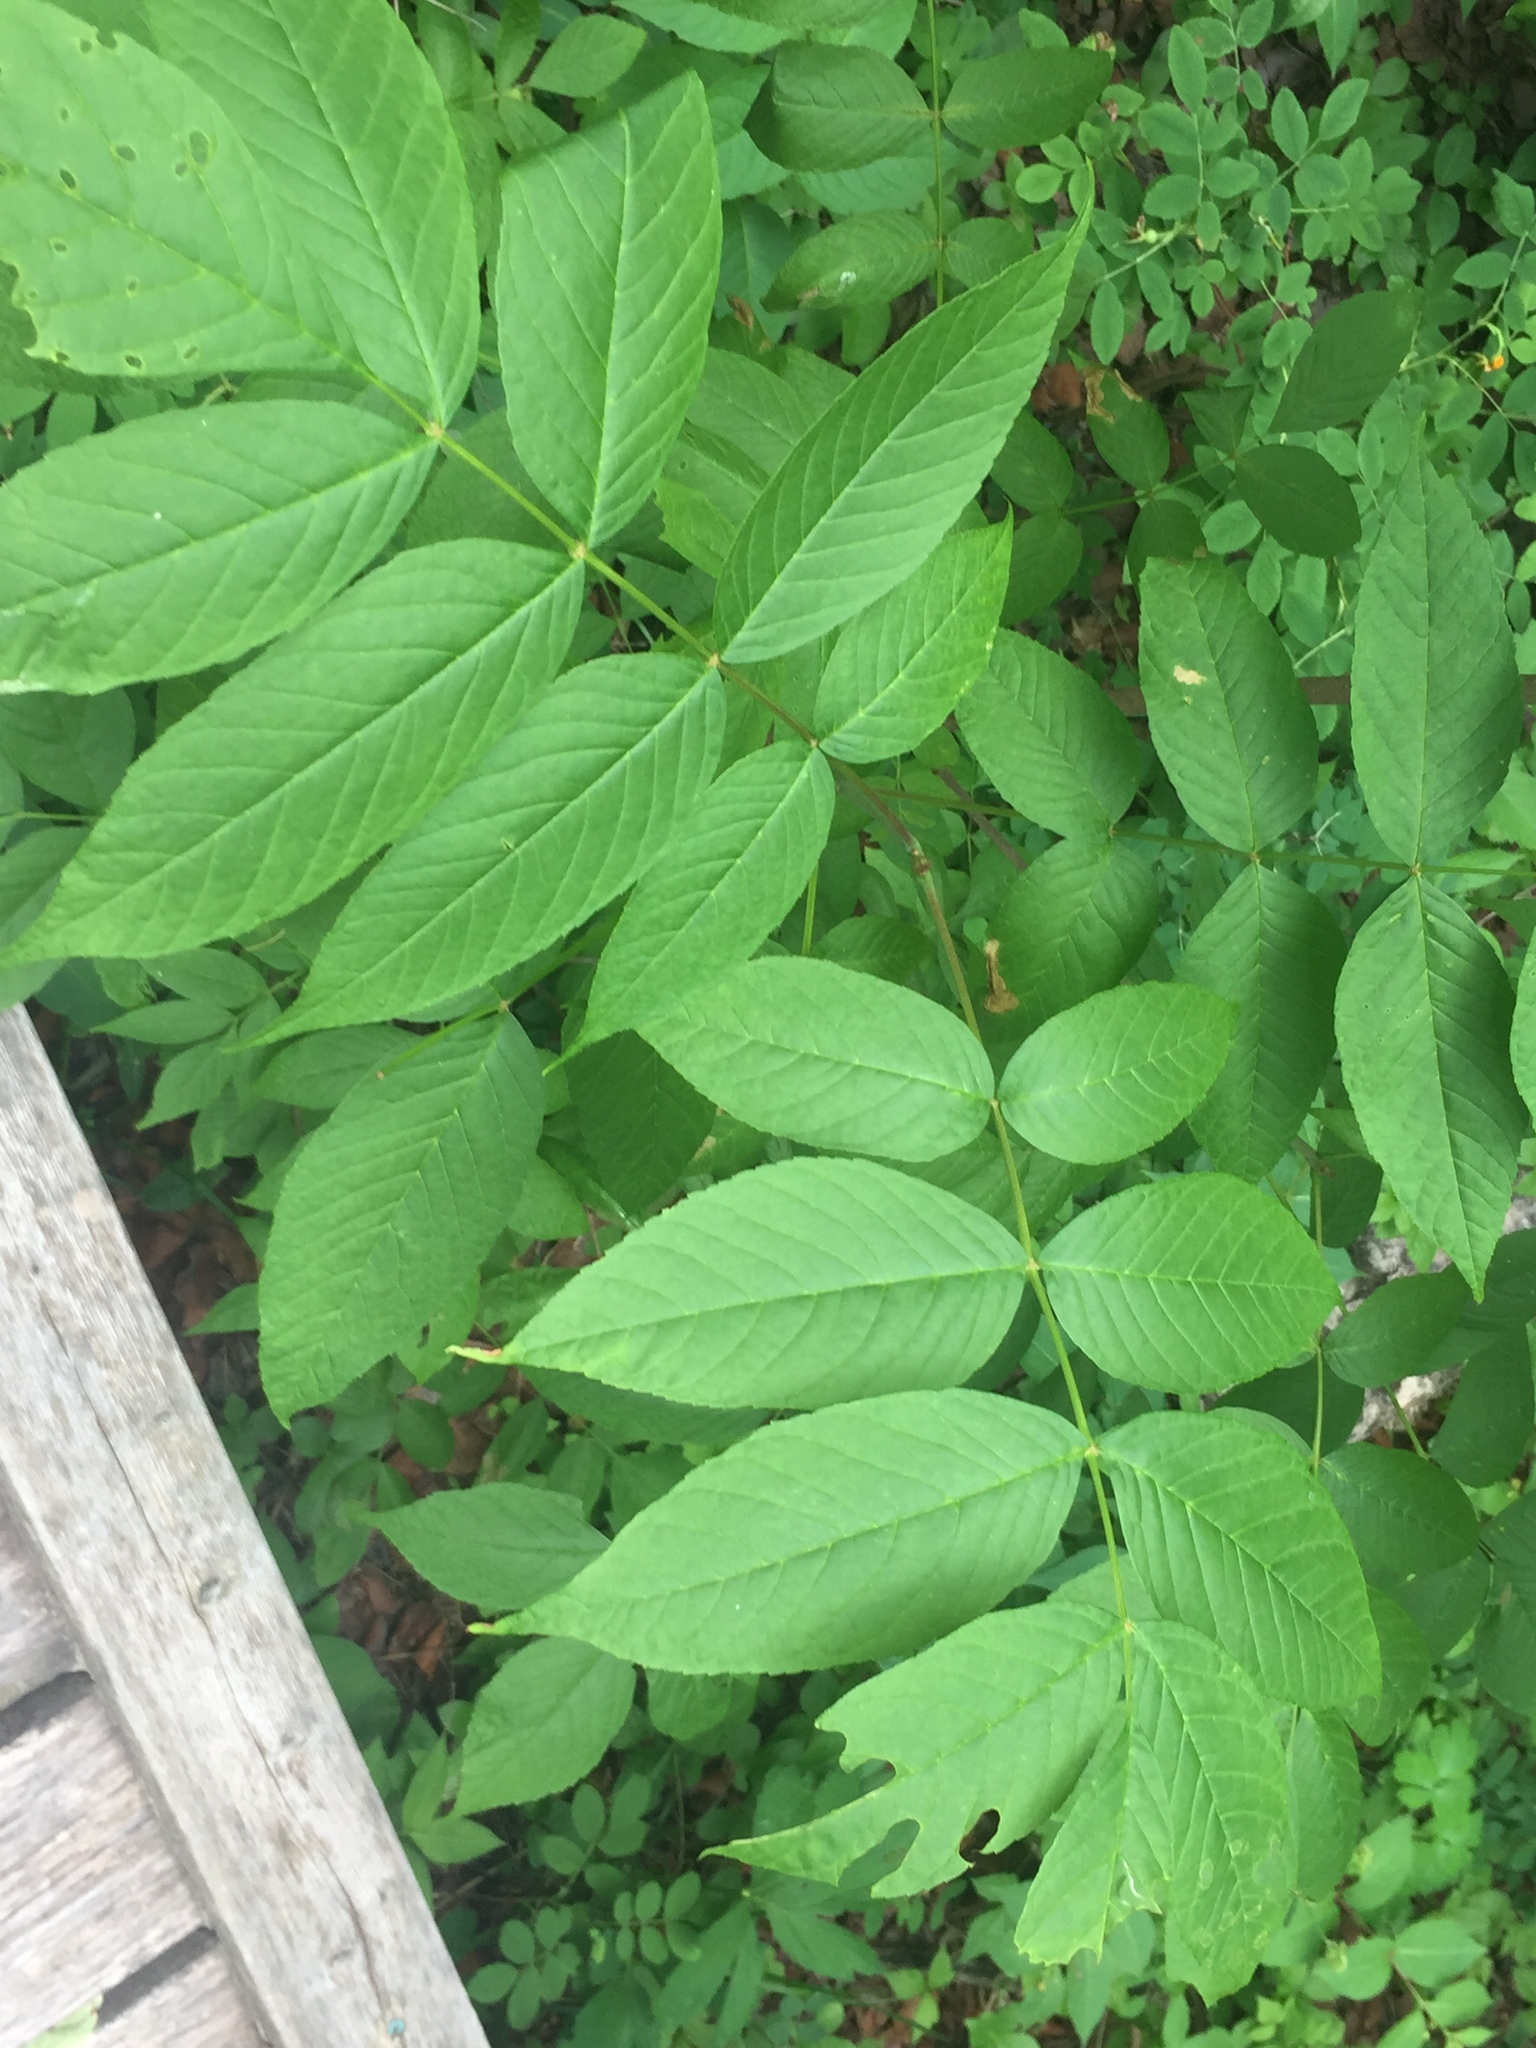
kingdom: Plantae
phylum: Tracheophyta
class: Magnoliopsida
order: Lamiales
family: Oleaceae
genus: Fraxinus
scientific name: Fraxinus nigra
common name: Black ash
